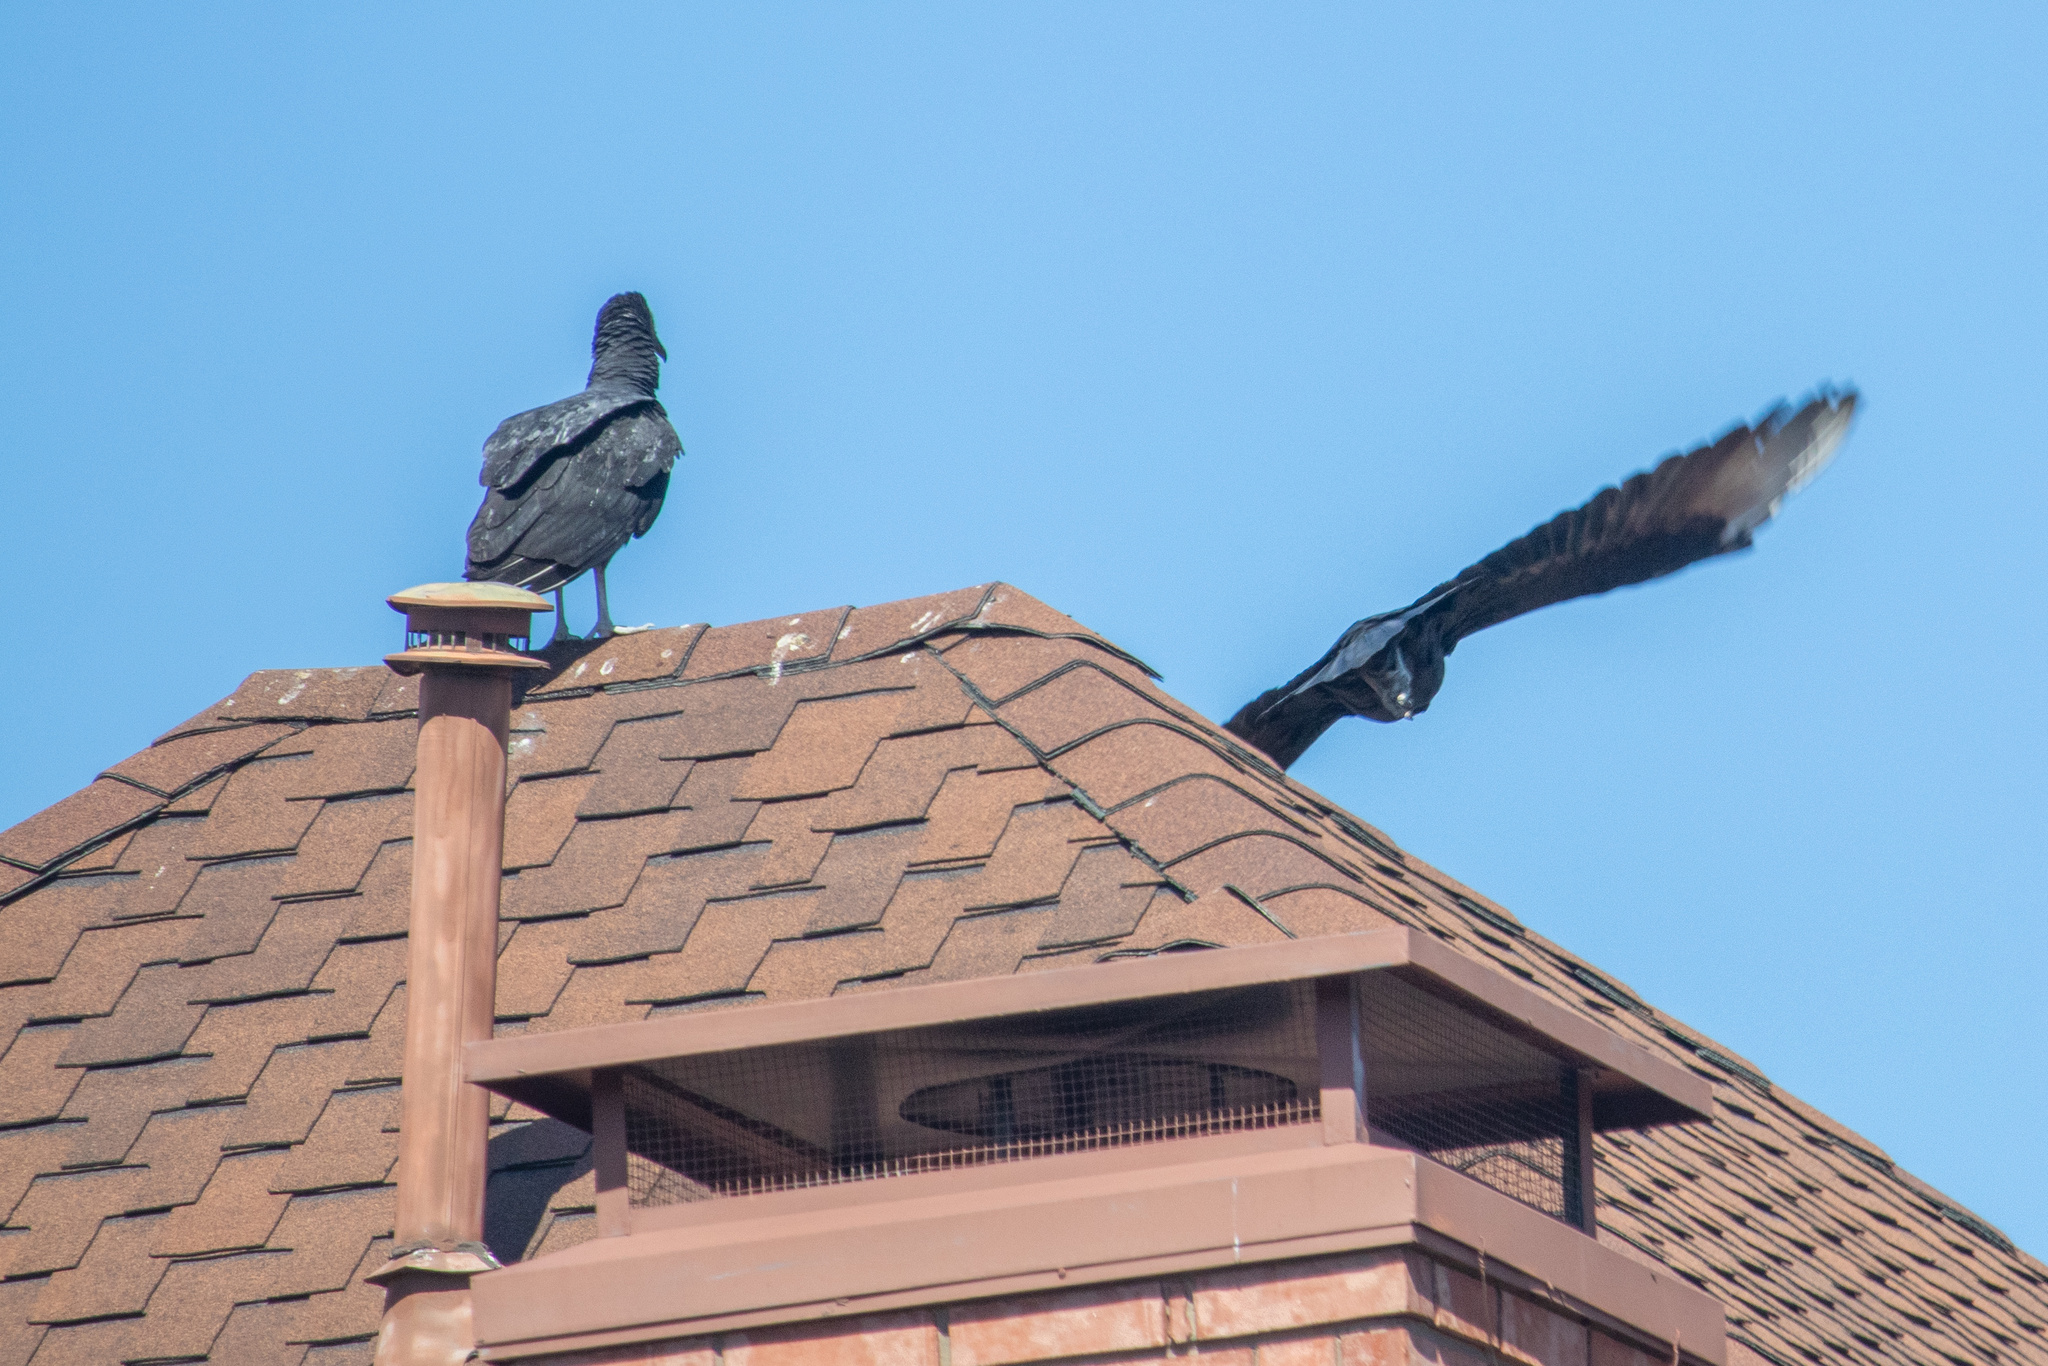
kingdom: Animalia
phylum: Chordata
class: Aves
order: Accipitriformes
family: Cathartidae
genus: Coragyps
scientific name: Coragyps atratus
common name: Black vulture
